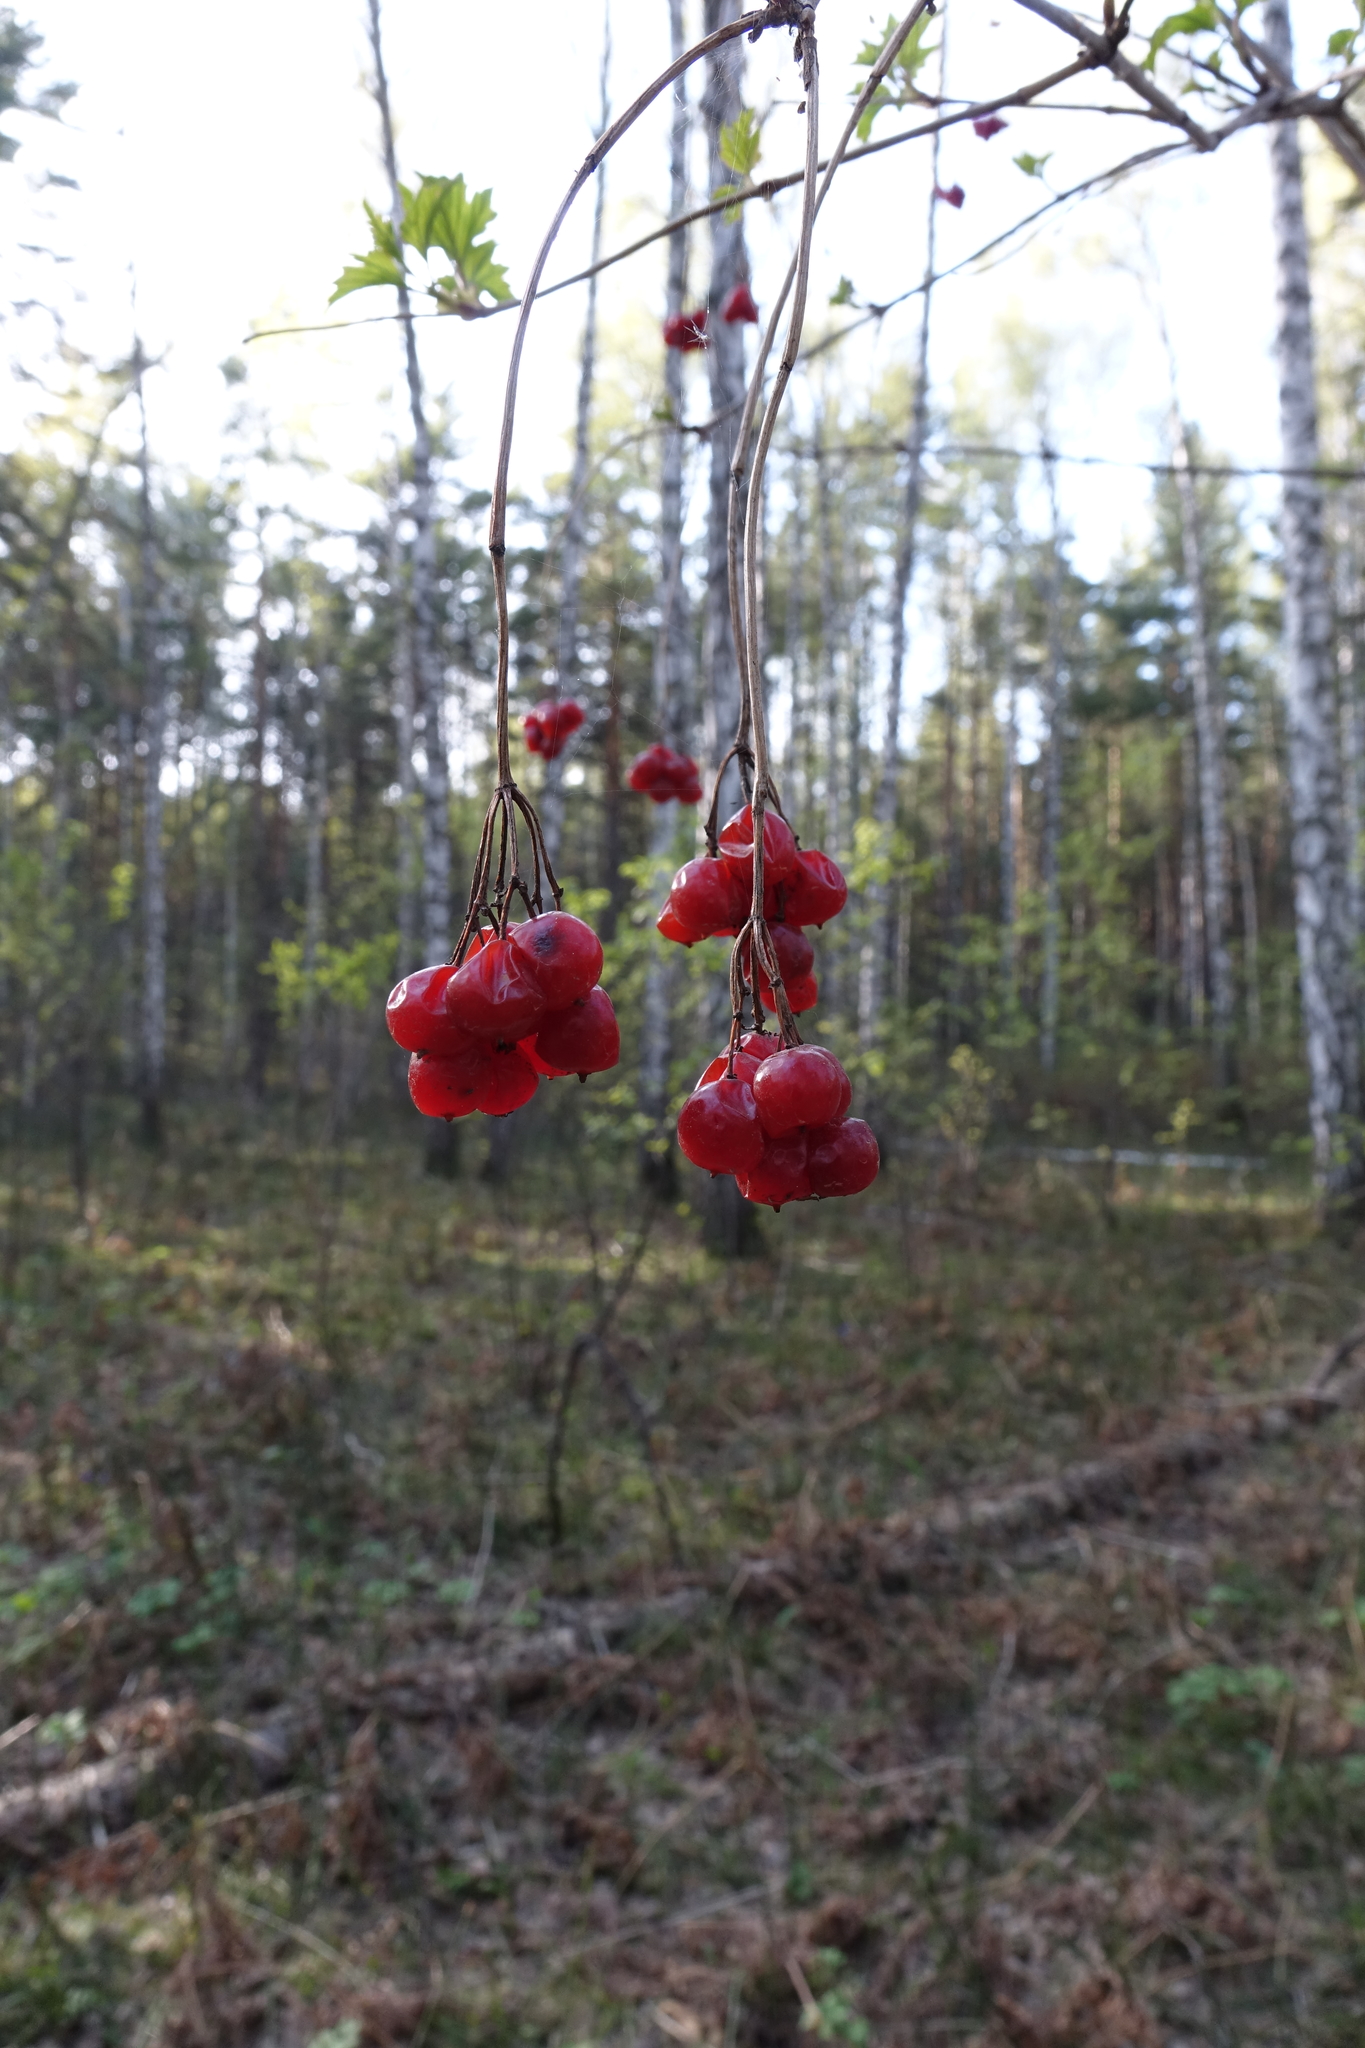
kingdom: Plantae
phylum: Tracheophyta
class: Magnoliopsida
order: Dipsacales
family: Viburnaceae
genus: Viburnum
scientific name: Viburnum opulus
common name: Guelder-rose
